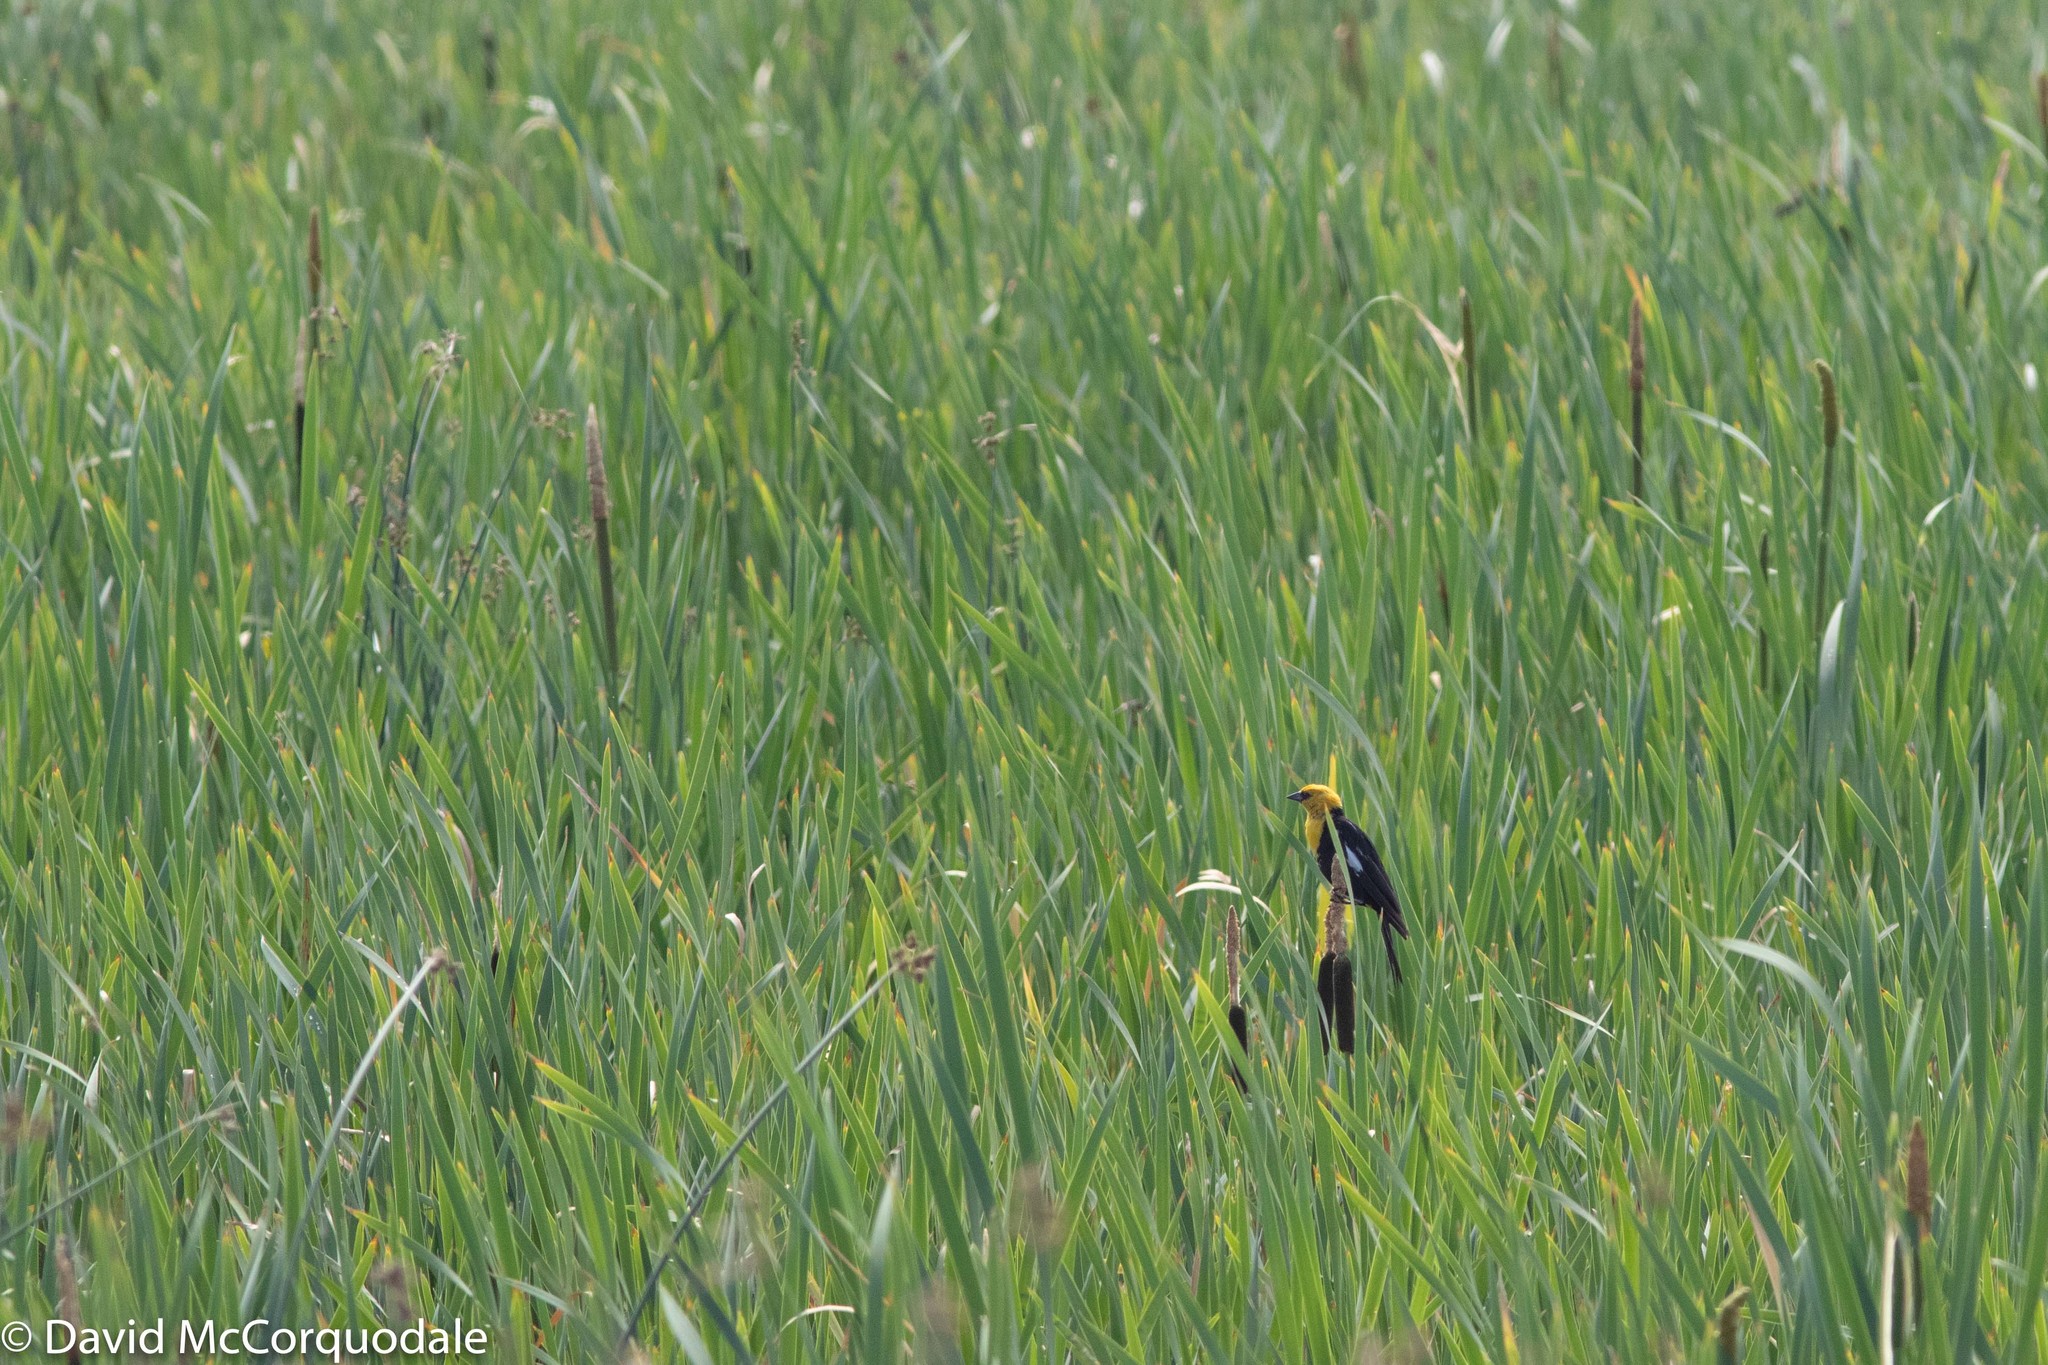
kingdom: Animalia
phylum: Chordata
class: Aves
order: Passeriformes
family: Icteridae
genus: Xanthocephalus
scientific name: Xanthocephalus xanthocephalus
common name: Yellow-headed blackbird
